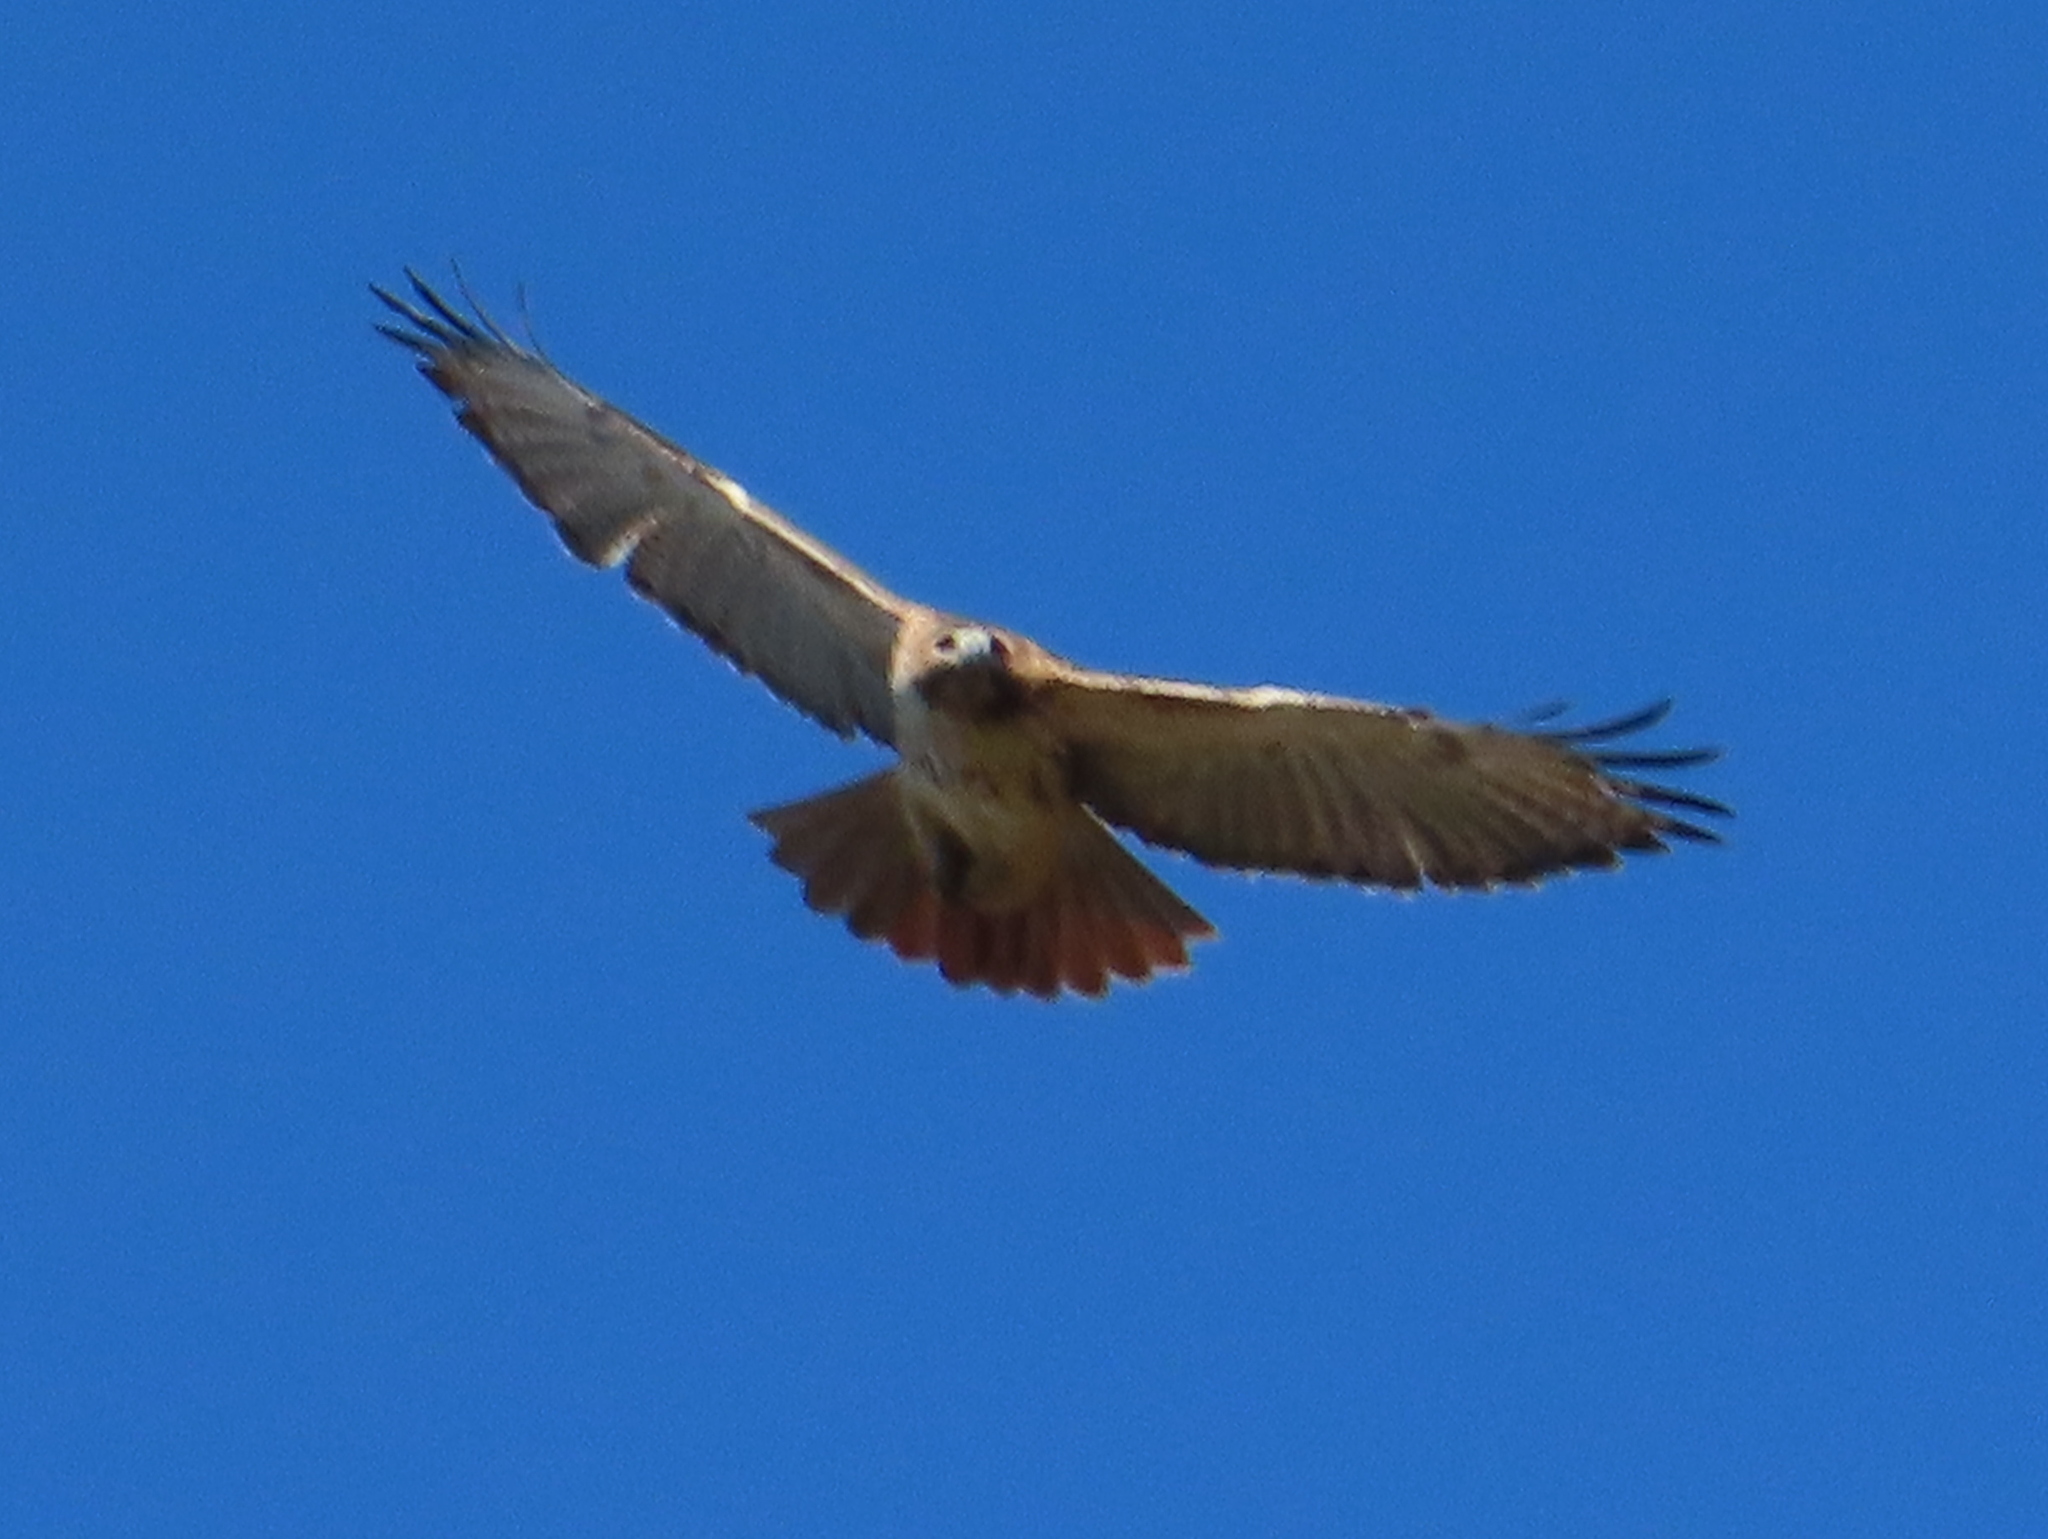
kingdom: Animalia
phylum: Chordata
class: Aves
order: Accipitriformes
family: Accipitridae
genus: Buteo
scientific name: Buteo jamaicensis
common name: Red-tailed hawk
